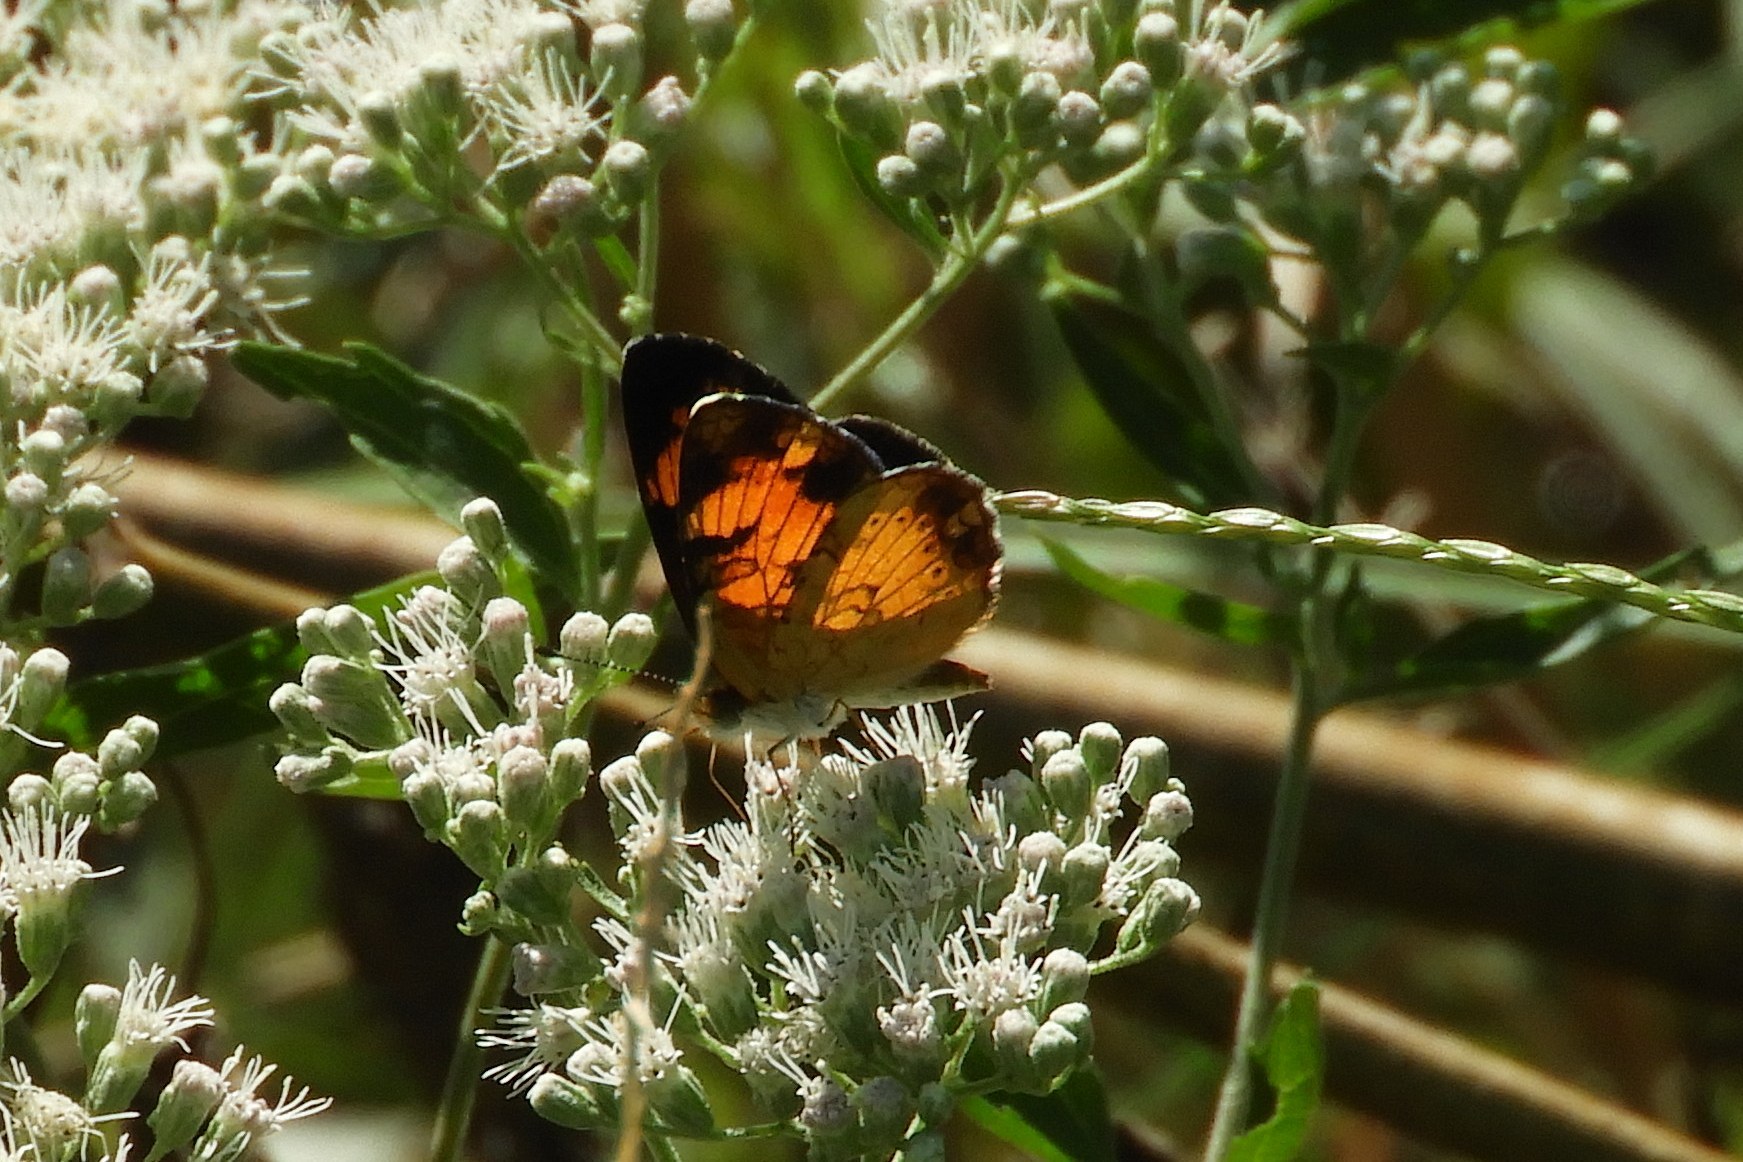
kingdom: Animalia
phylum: Arthropoda
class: Insecta
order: Lepidoptera
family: Nymphalidae
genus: Phyciodes
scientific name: Phyciodes tharos
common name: Pearl crescent
